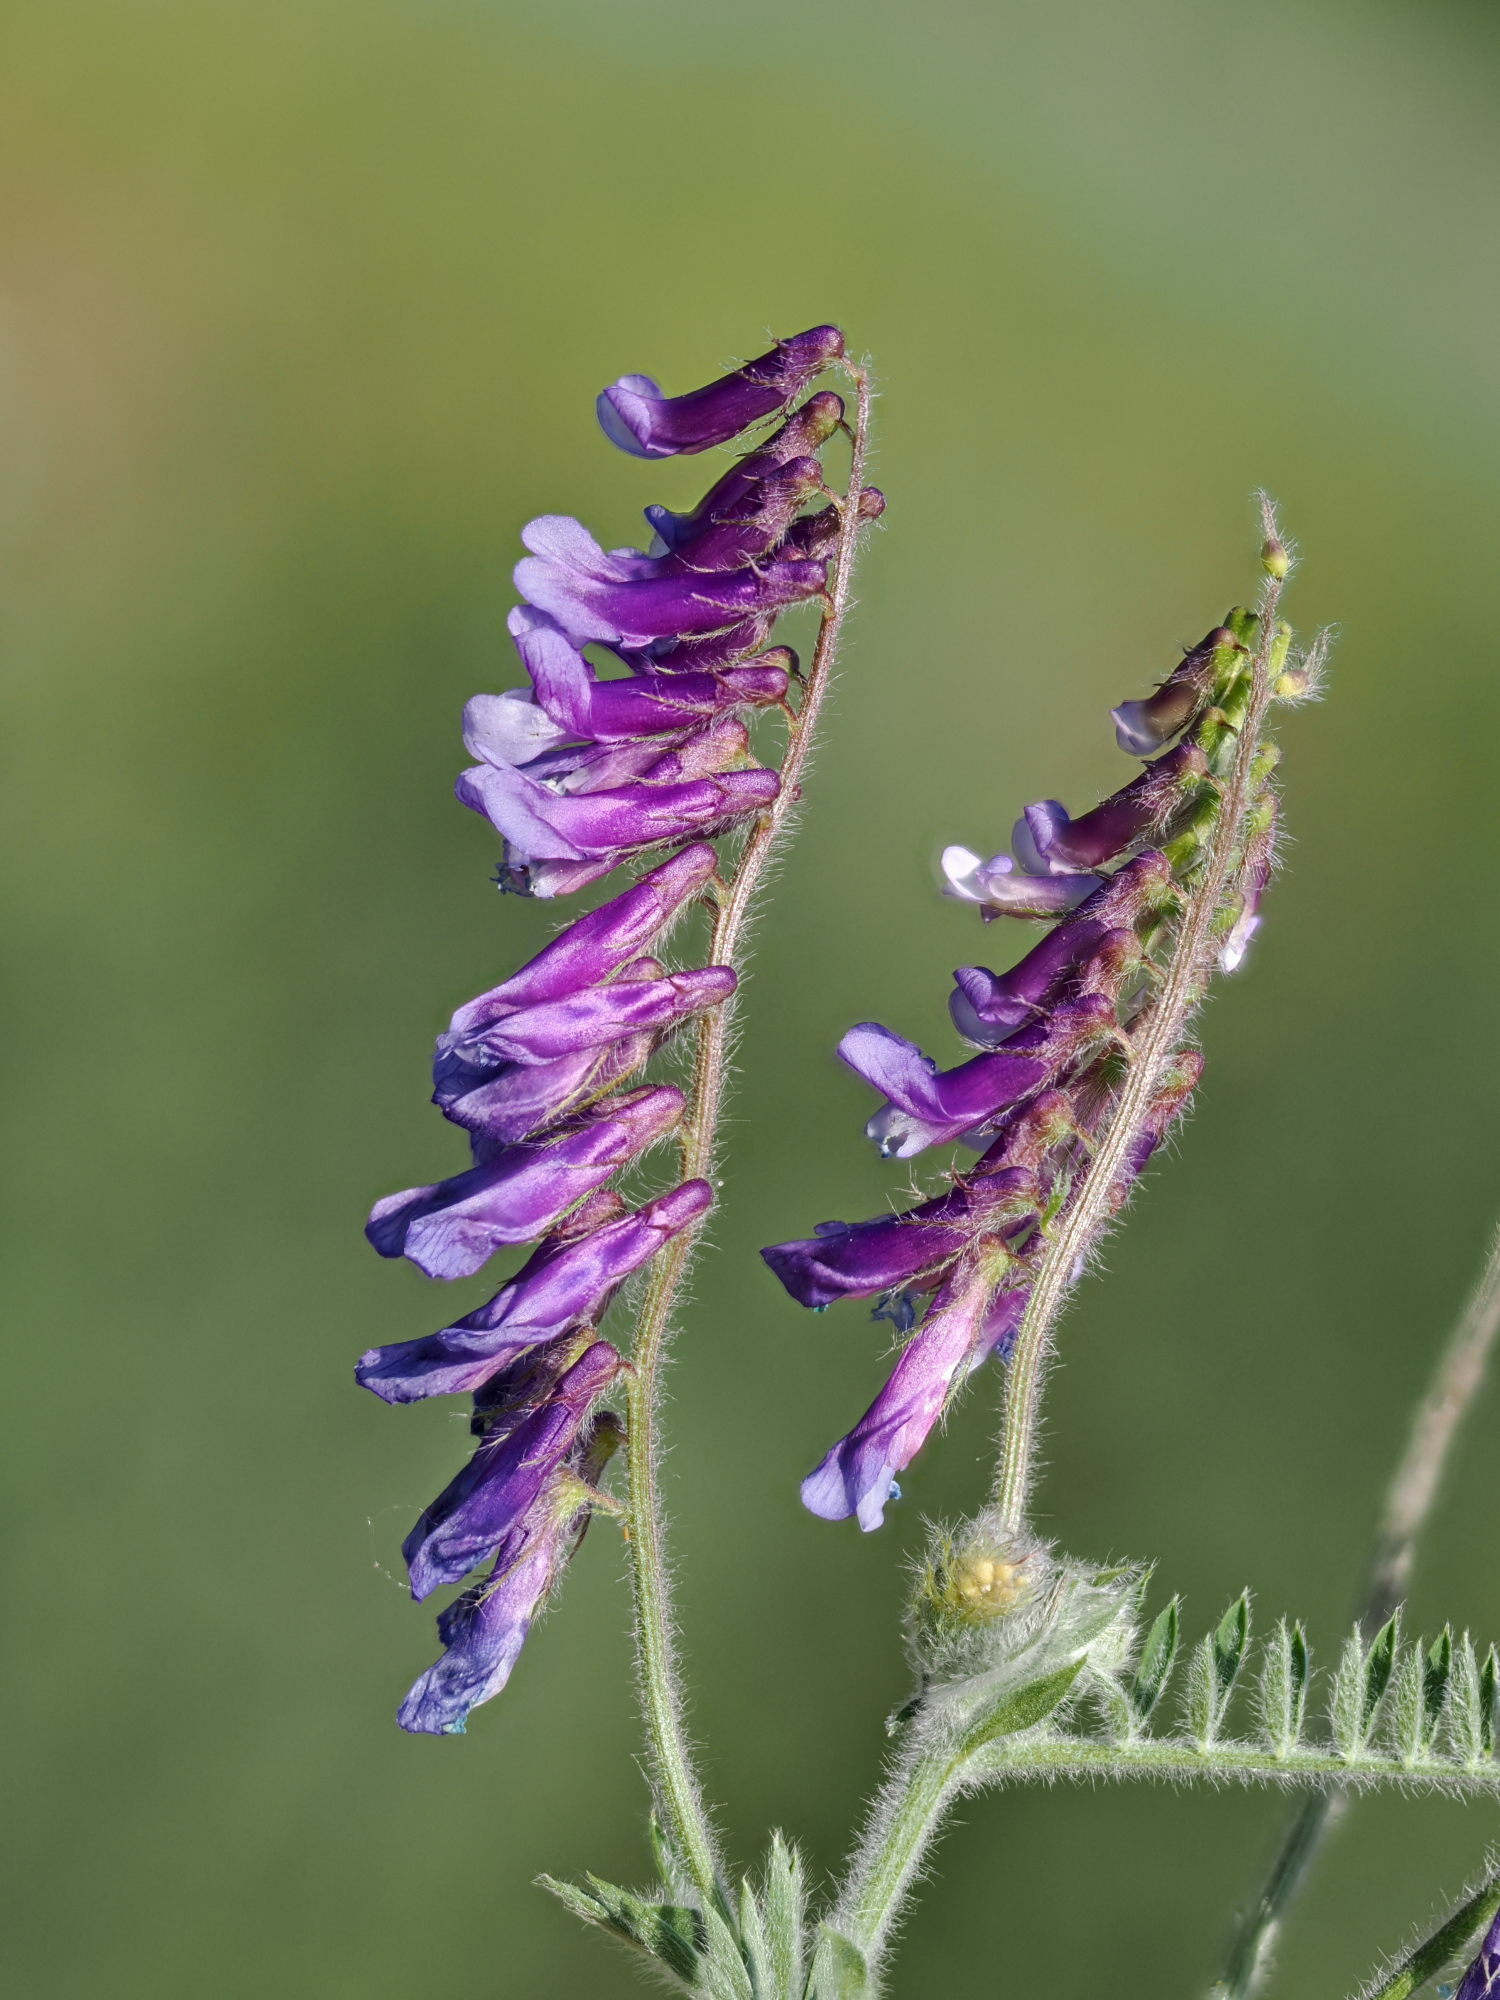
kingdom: Plantae
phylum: Tracheophyta
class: Magnoliopsida
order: Fabales
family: Fabaceae
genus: Vicia
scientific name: Vicia villosa
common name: Fodder vetch
